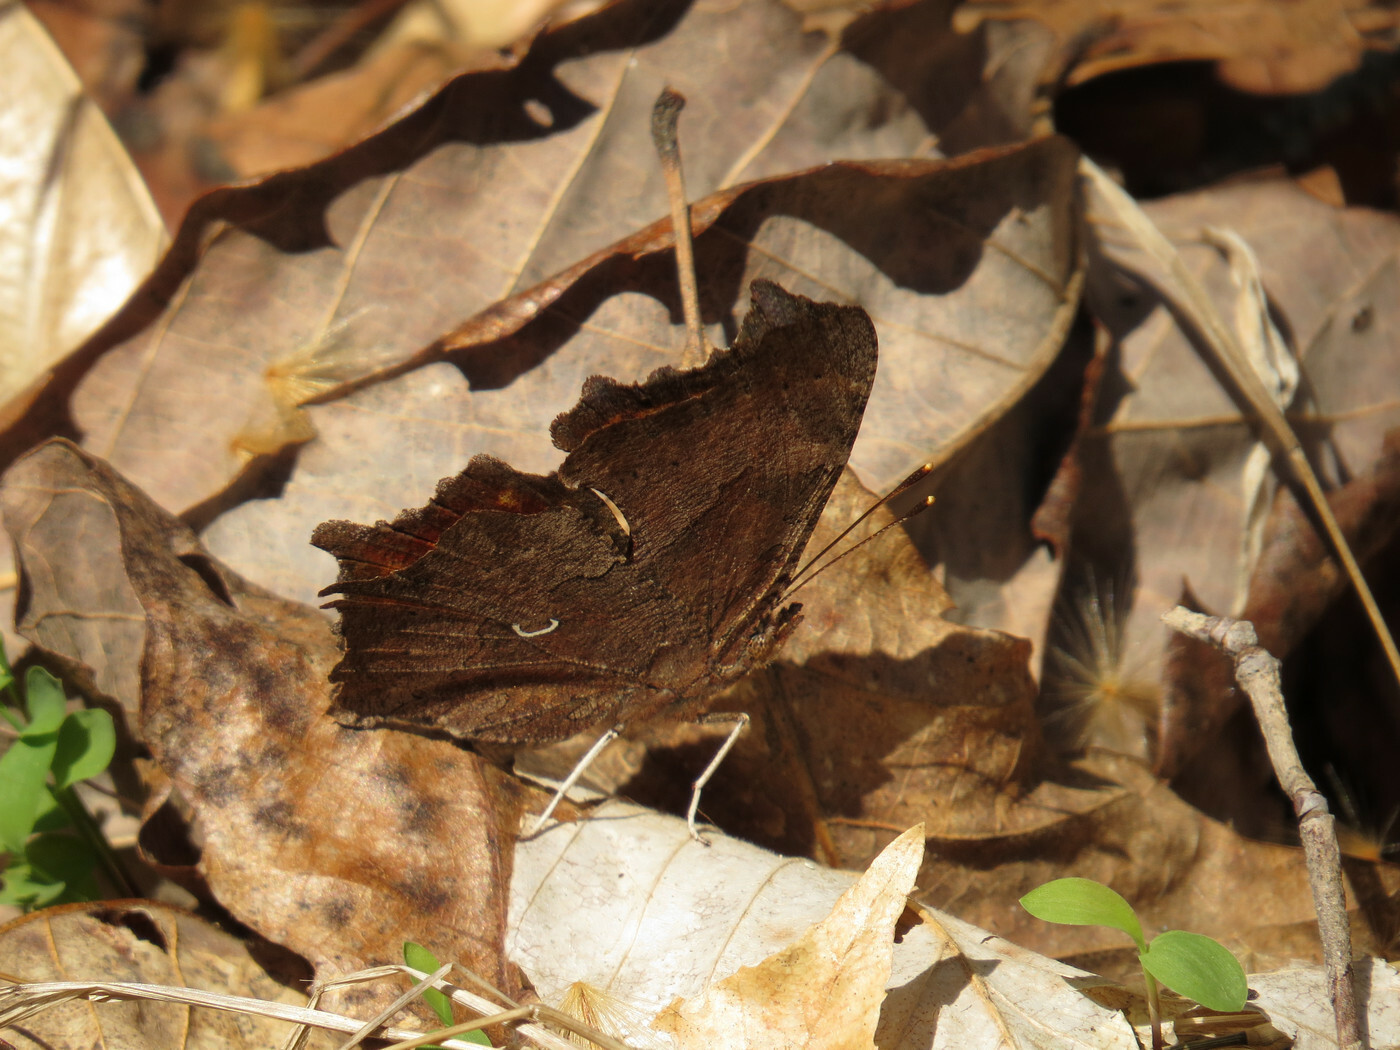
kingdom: Animalia
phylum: Arthropoda
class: Insecta
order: Lepidoptera
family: Nymphalidae
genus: Polygonia
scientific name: Polygonia comma
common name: Eastern comma
